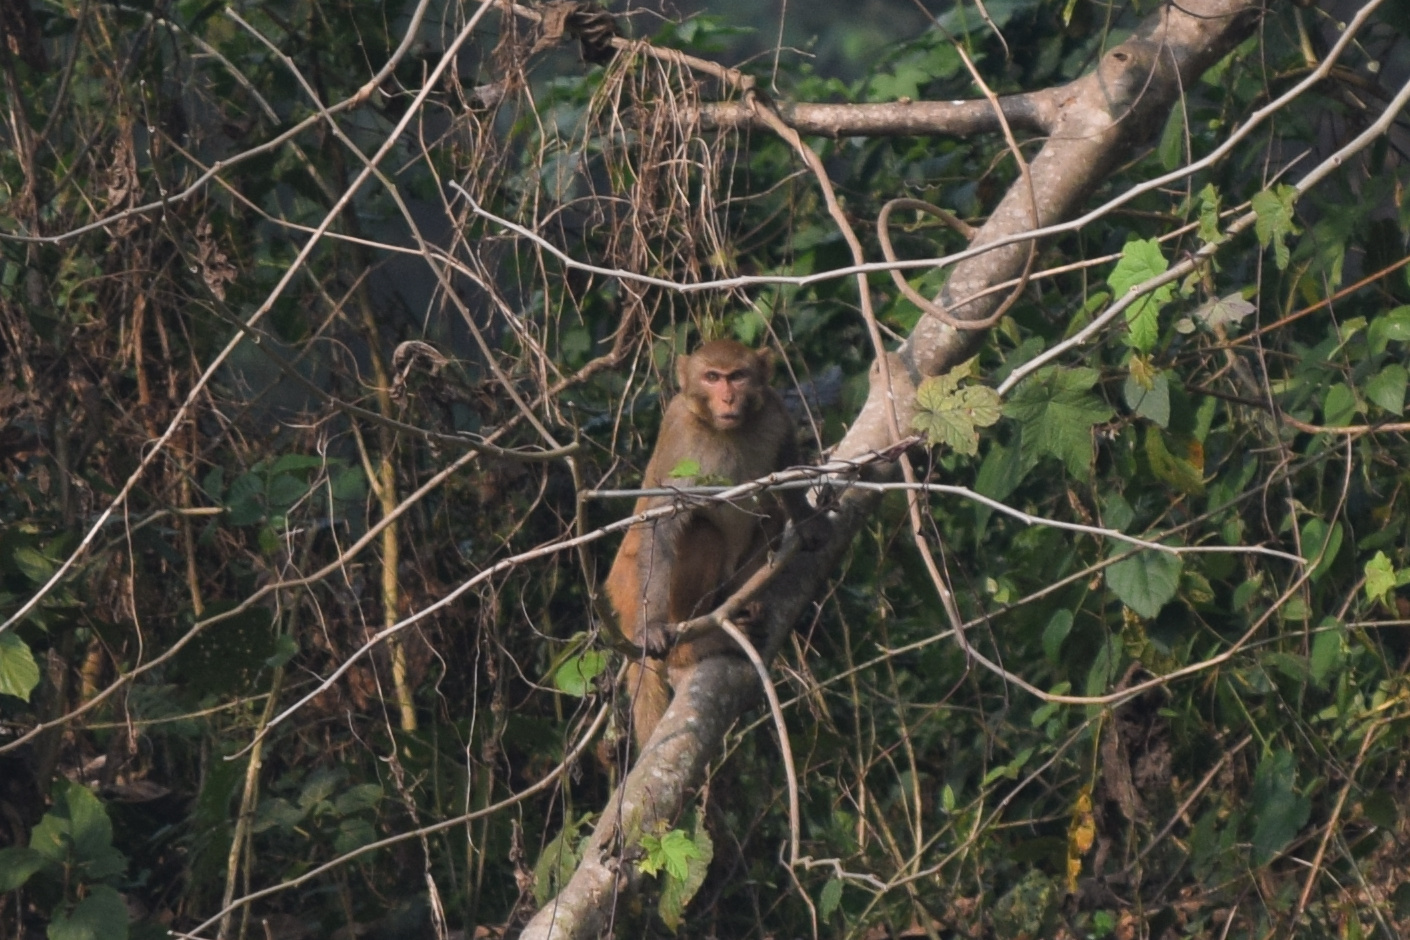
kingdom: Animalia
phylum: Chordata
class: Mammalia
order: Primates
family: Cercopithecidae
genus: Macaca
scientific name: Macaca mulatta
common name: Rhesus monkey
